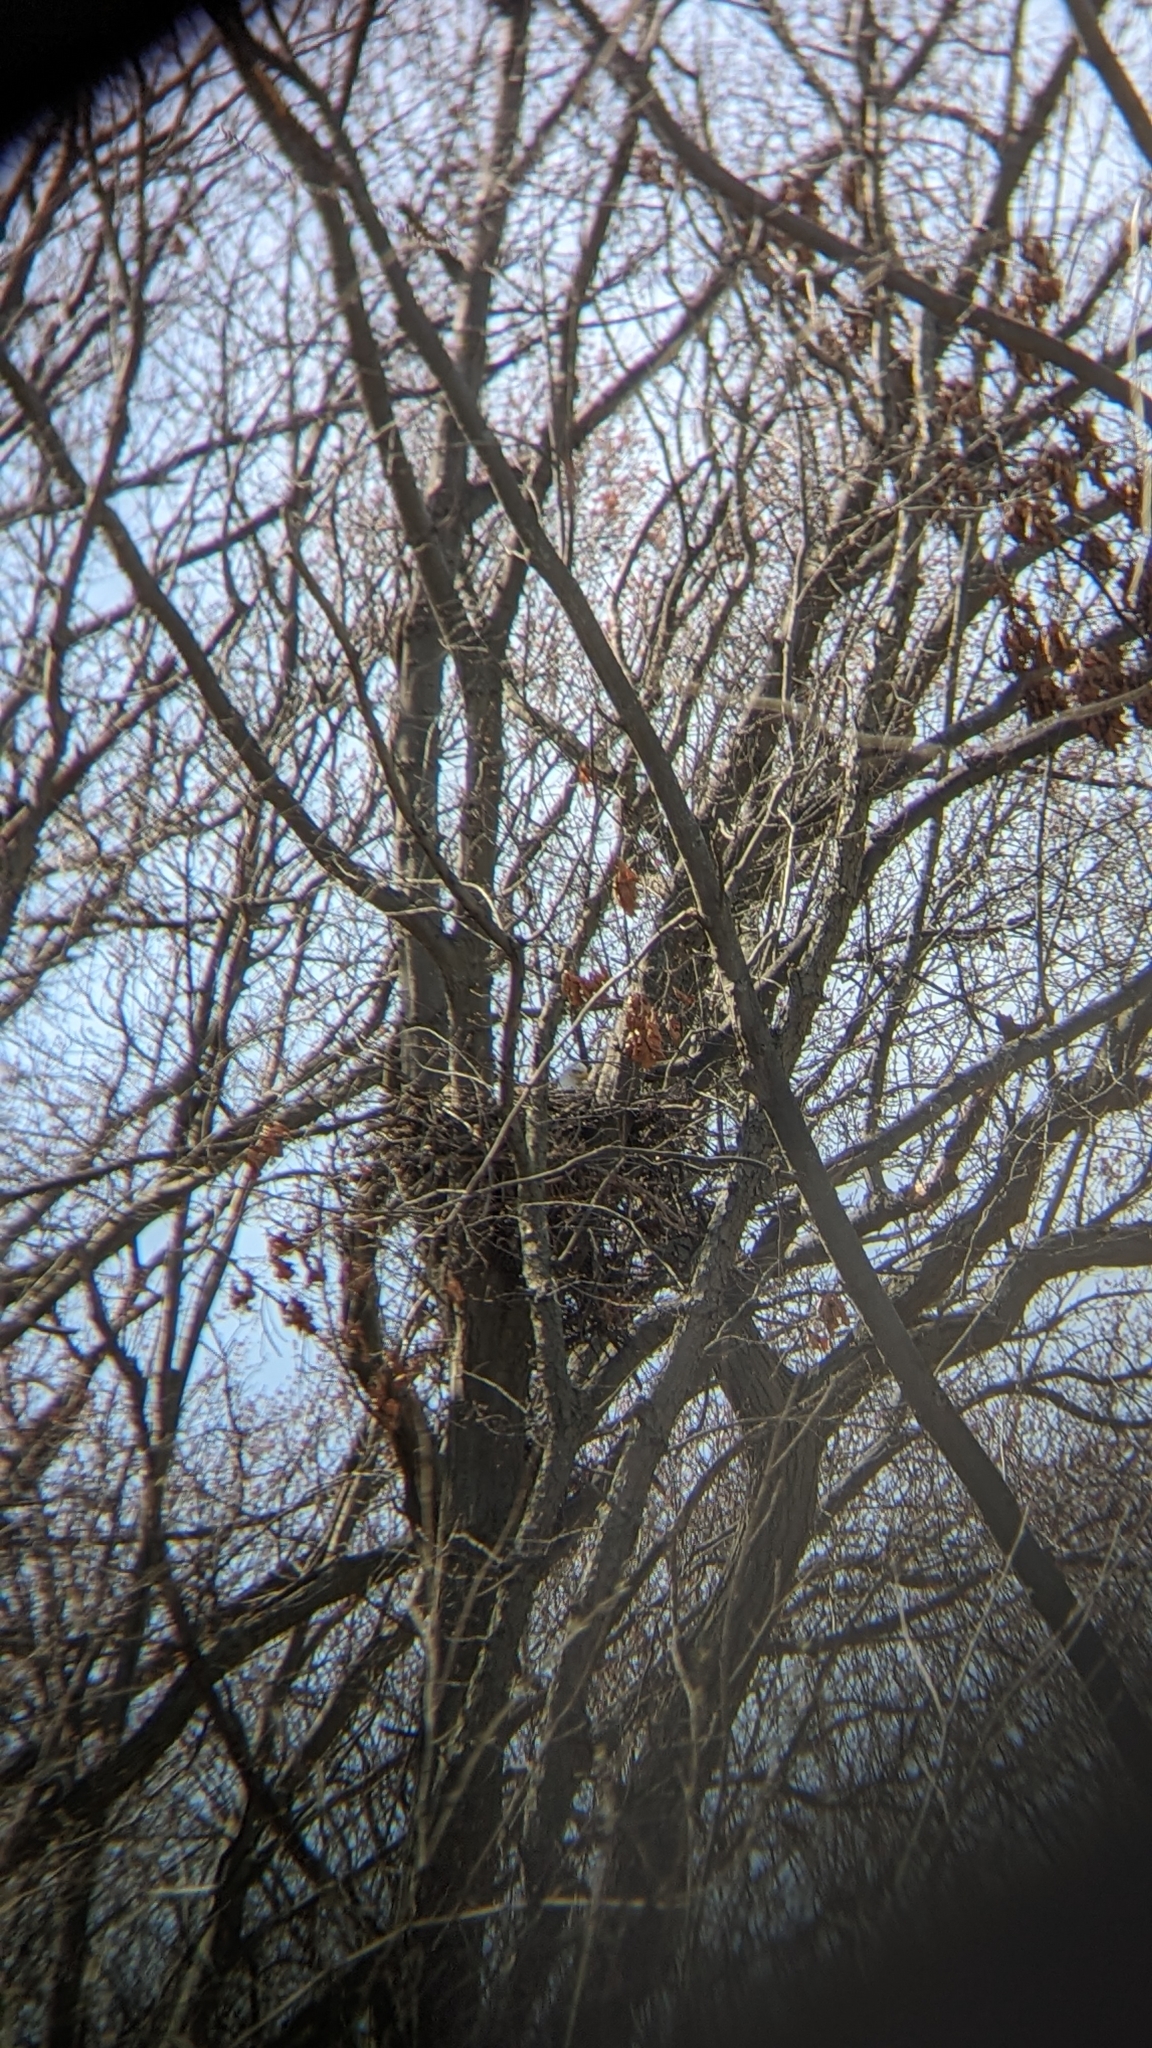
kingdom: Animalia
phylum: Chordata
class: Aves
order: Accipitriformes
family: Accipitridae
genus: Haliaeetus
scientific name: Haliaeetus leucocephalus
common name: Bald eagle
